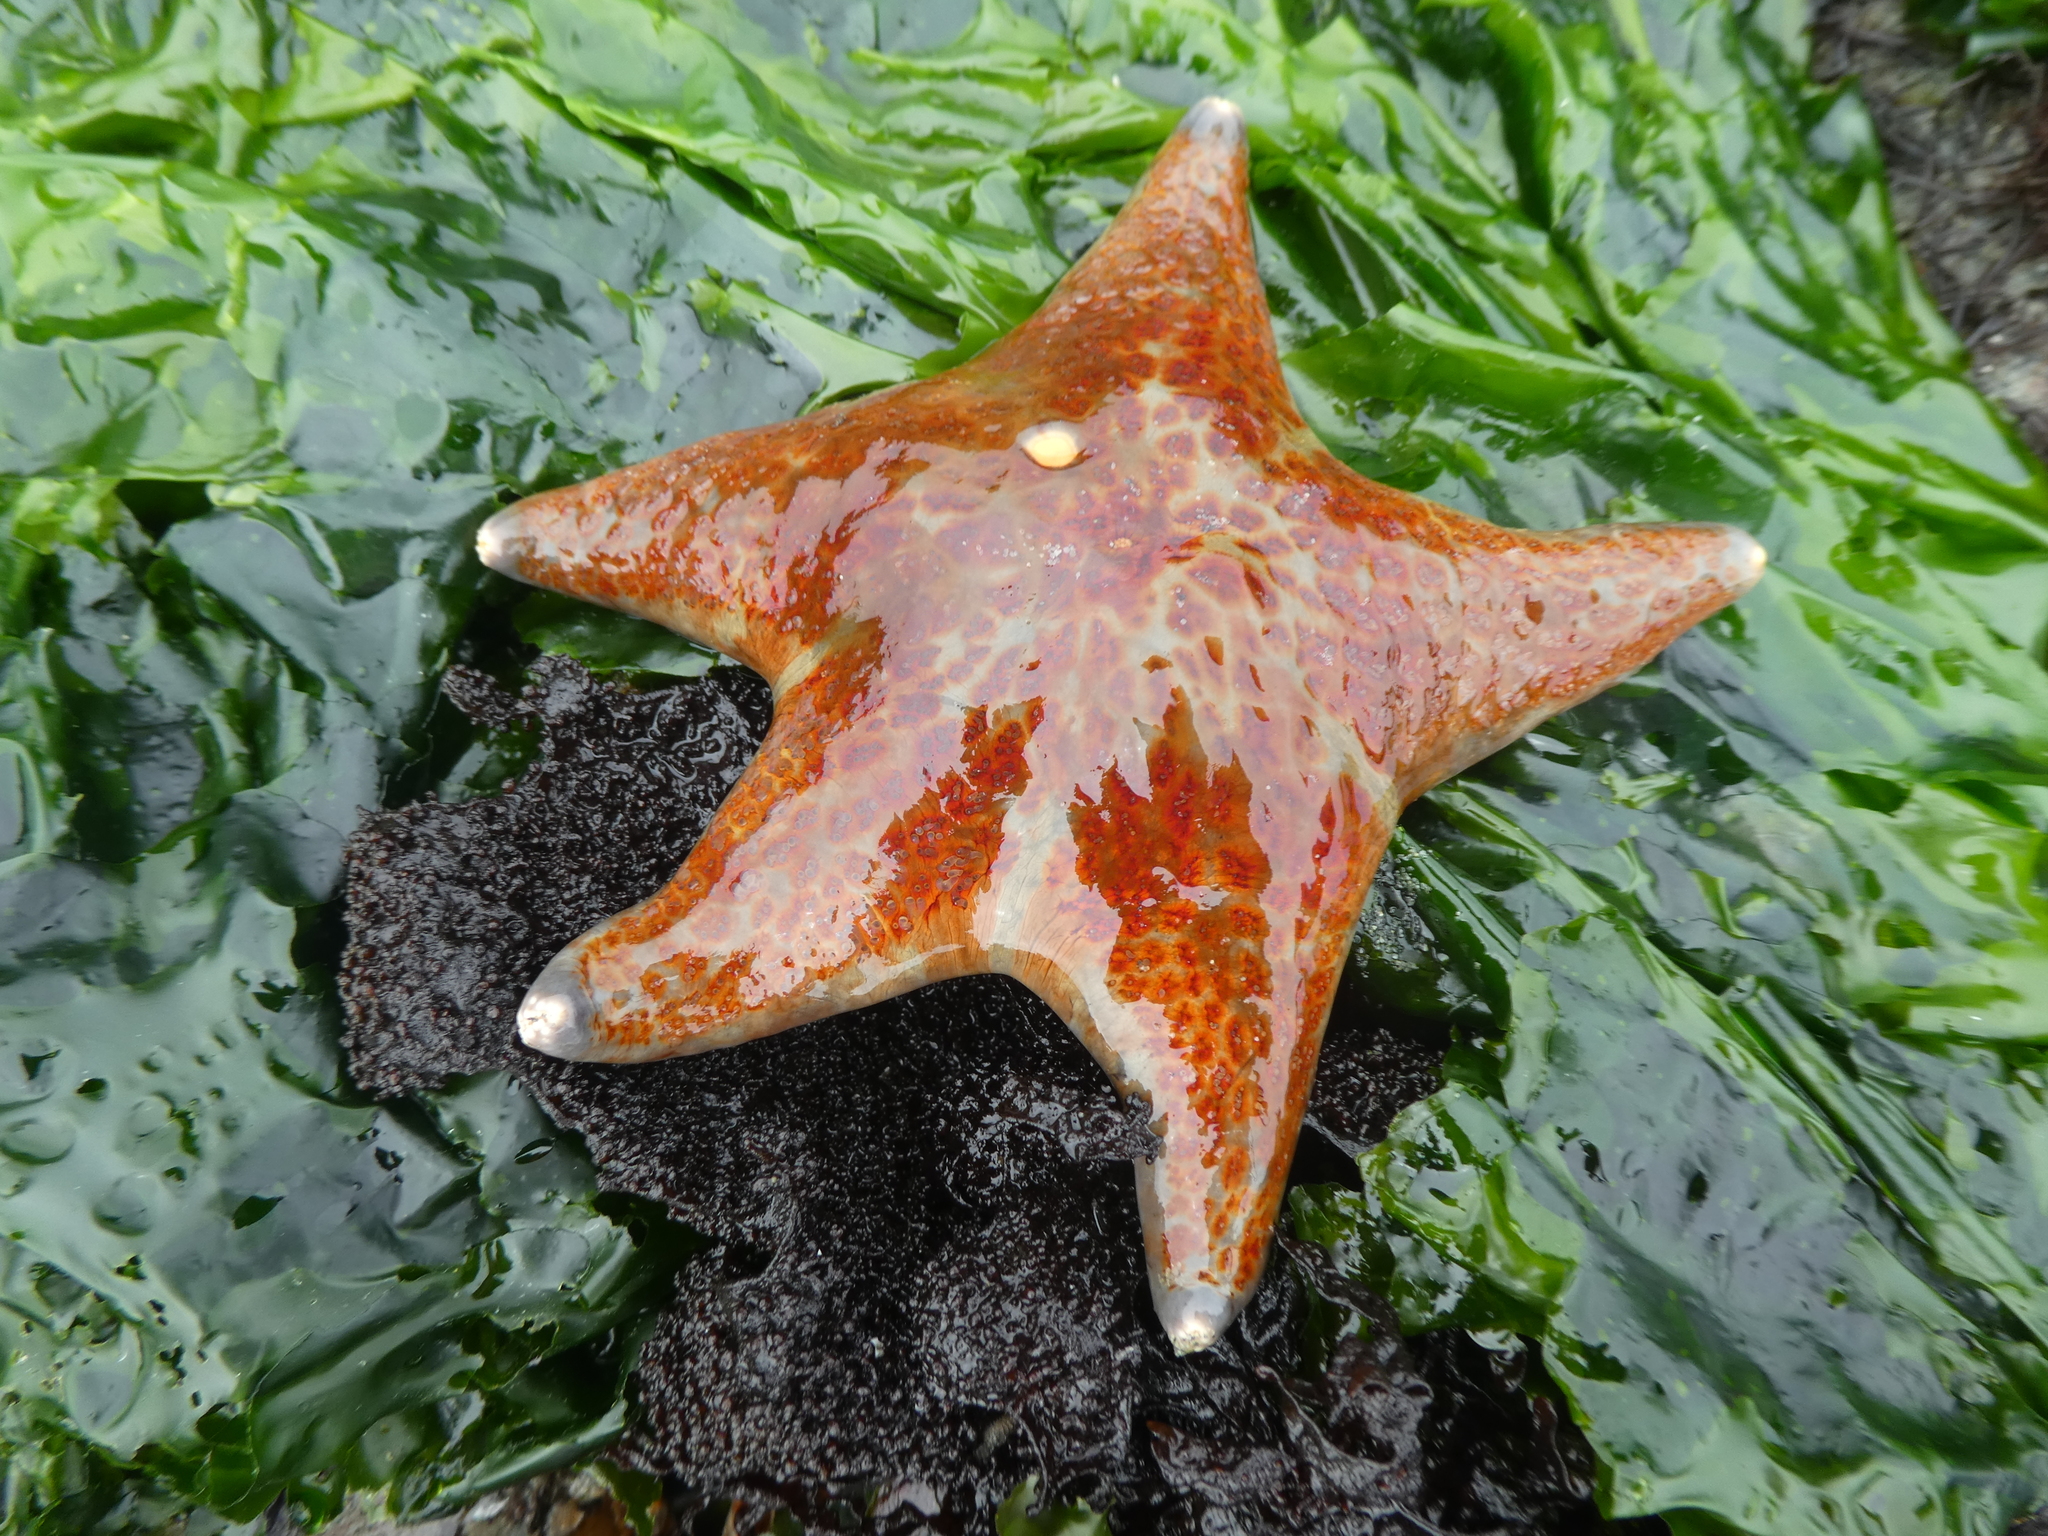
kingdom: Animalia
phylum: Echinodermata
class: Asteroidea
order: Valvatida
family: Asteropseidae
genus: Dermasterias
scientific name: Dermasterias imbricata
